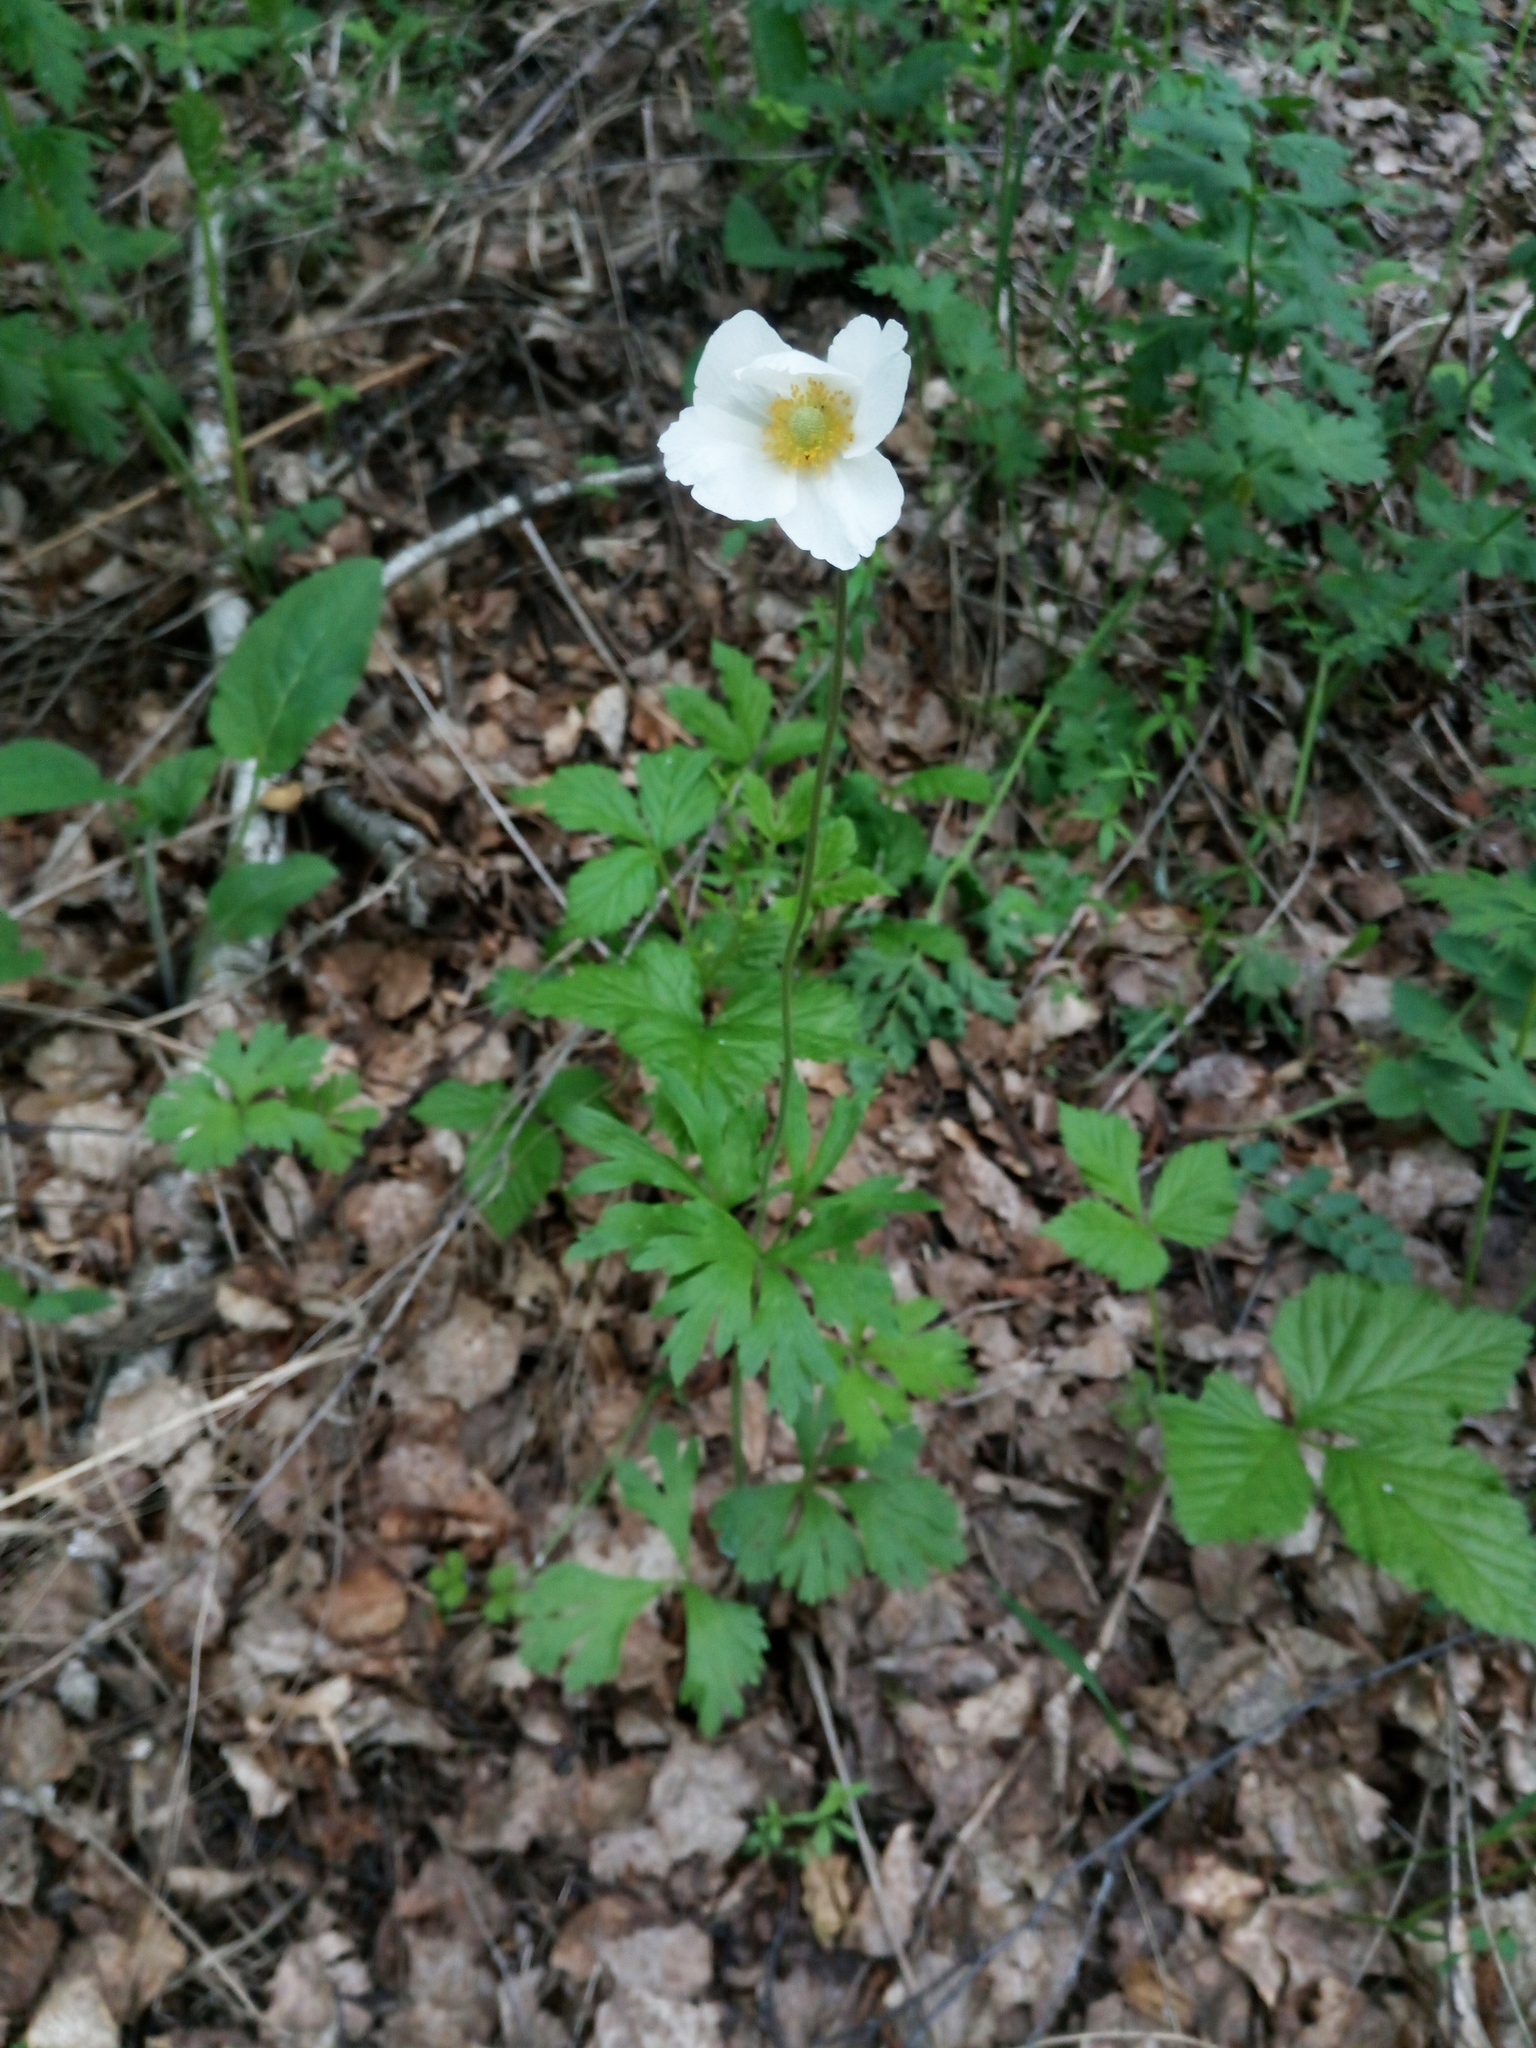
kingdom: Plantae
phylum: Tracheophyta
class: Magnoliopsida
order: Ranunculales
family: Ranunculaceae
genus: Anemone
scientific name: Anemone sylvestris
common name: Snowdrop anemone
